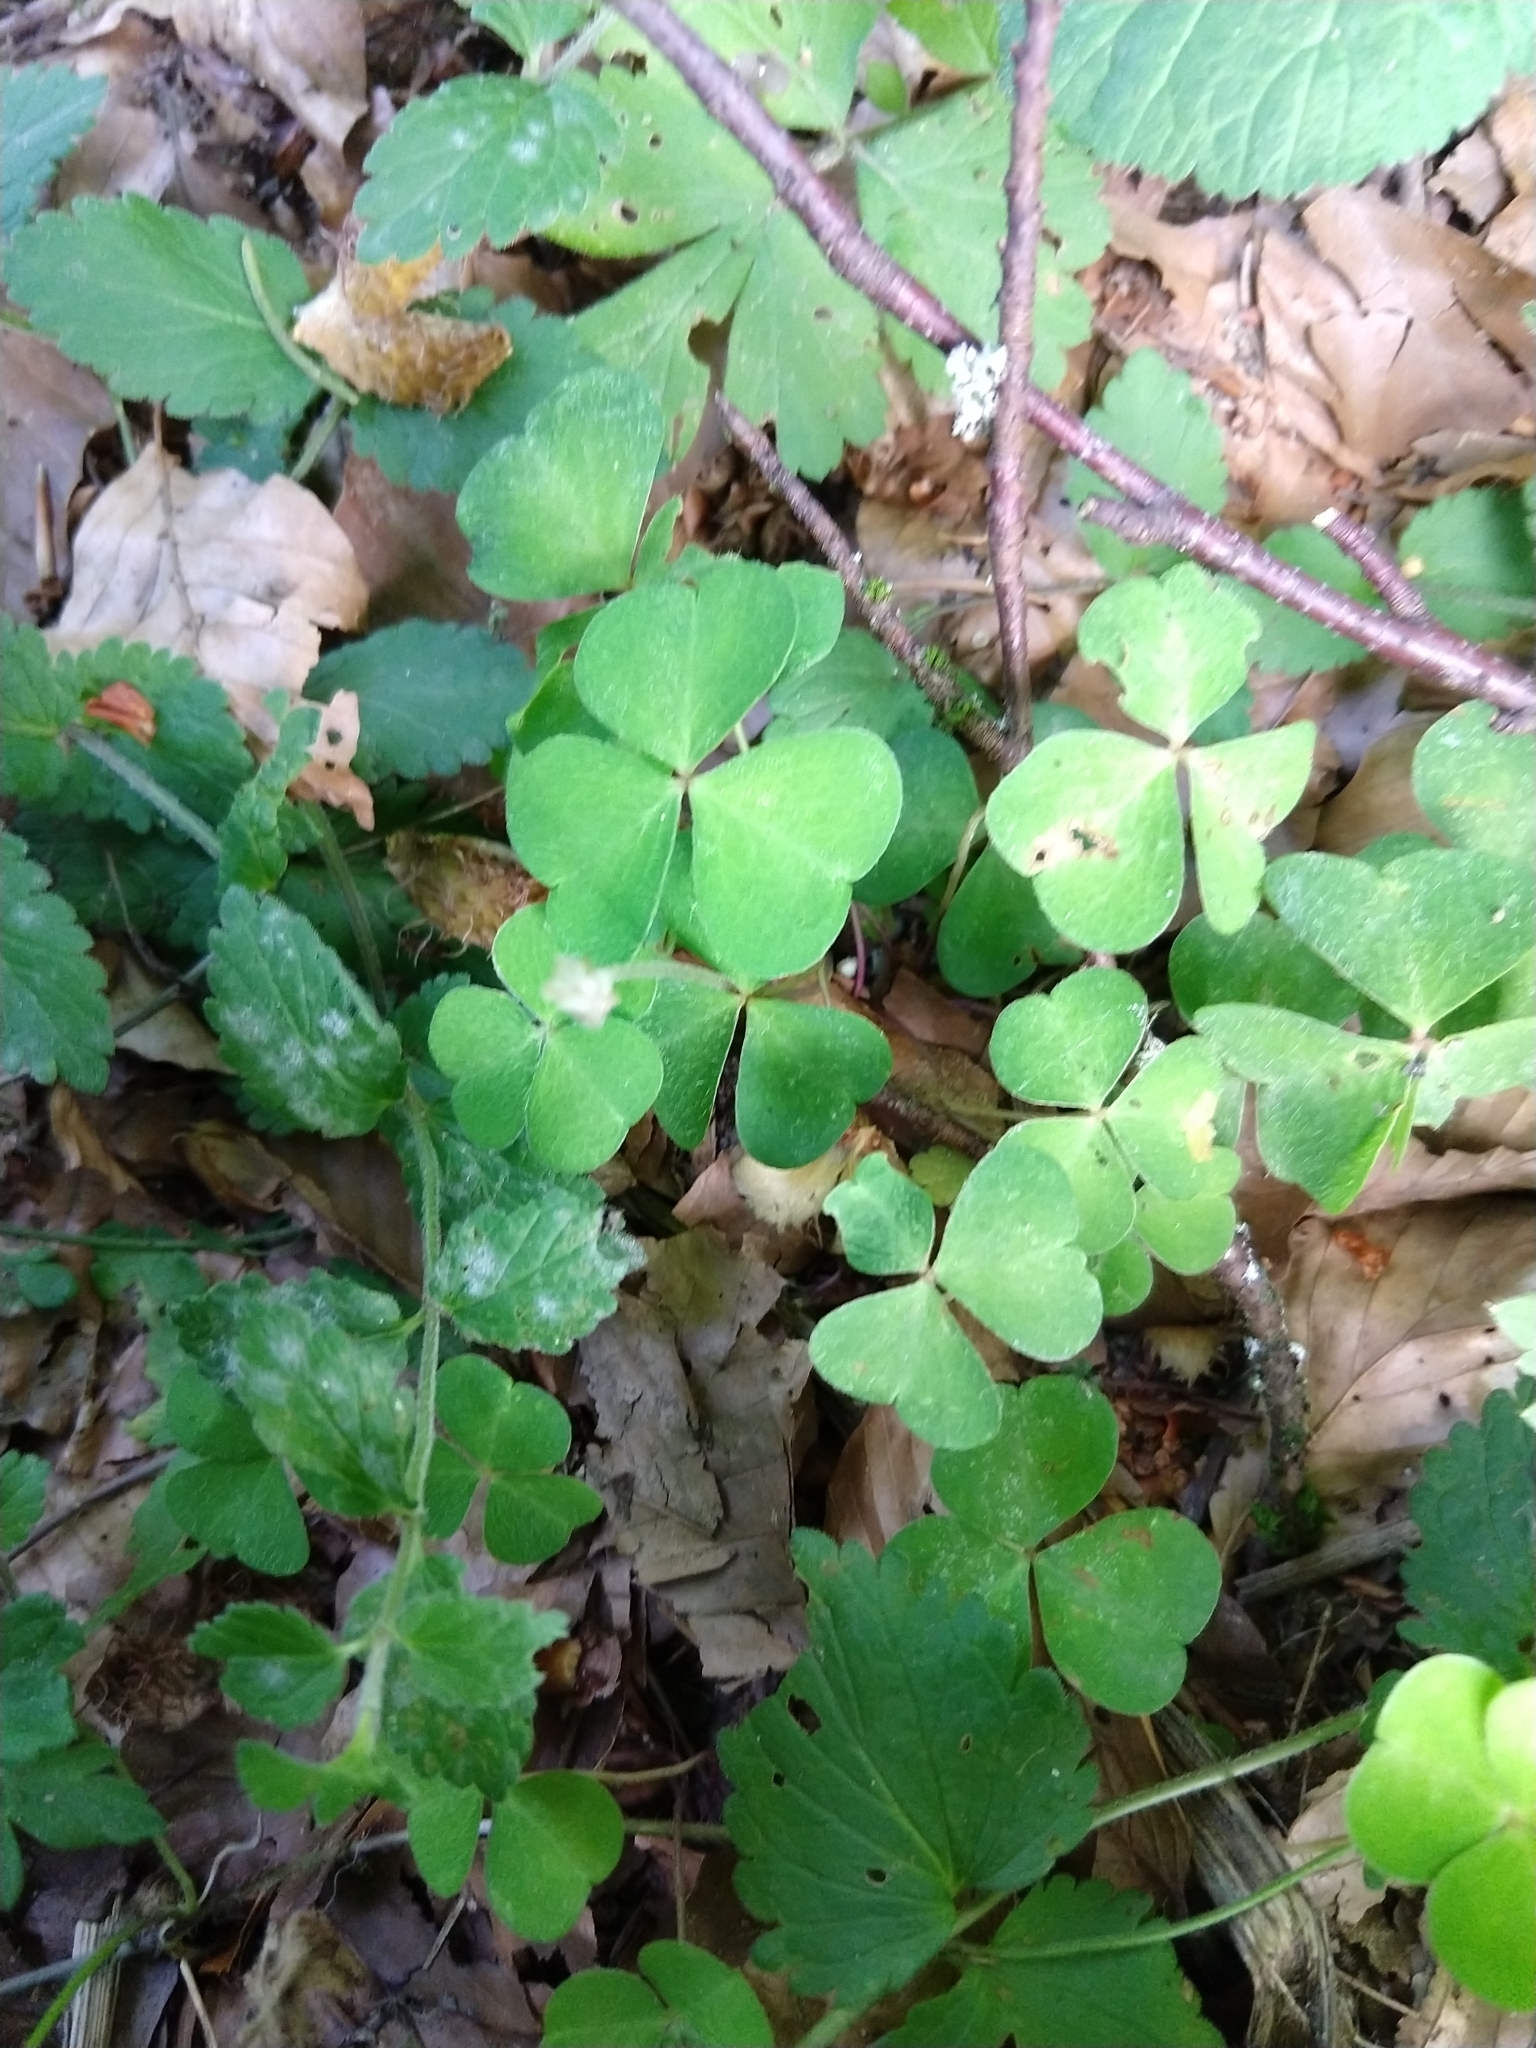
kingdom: Plantae
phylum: Tracheophyta
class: Magnoliopsida
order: Oxalidales
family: Oxalidaceae
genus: Oxalis
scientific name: Oxalis acetosella
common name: Wood-sorrel
